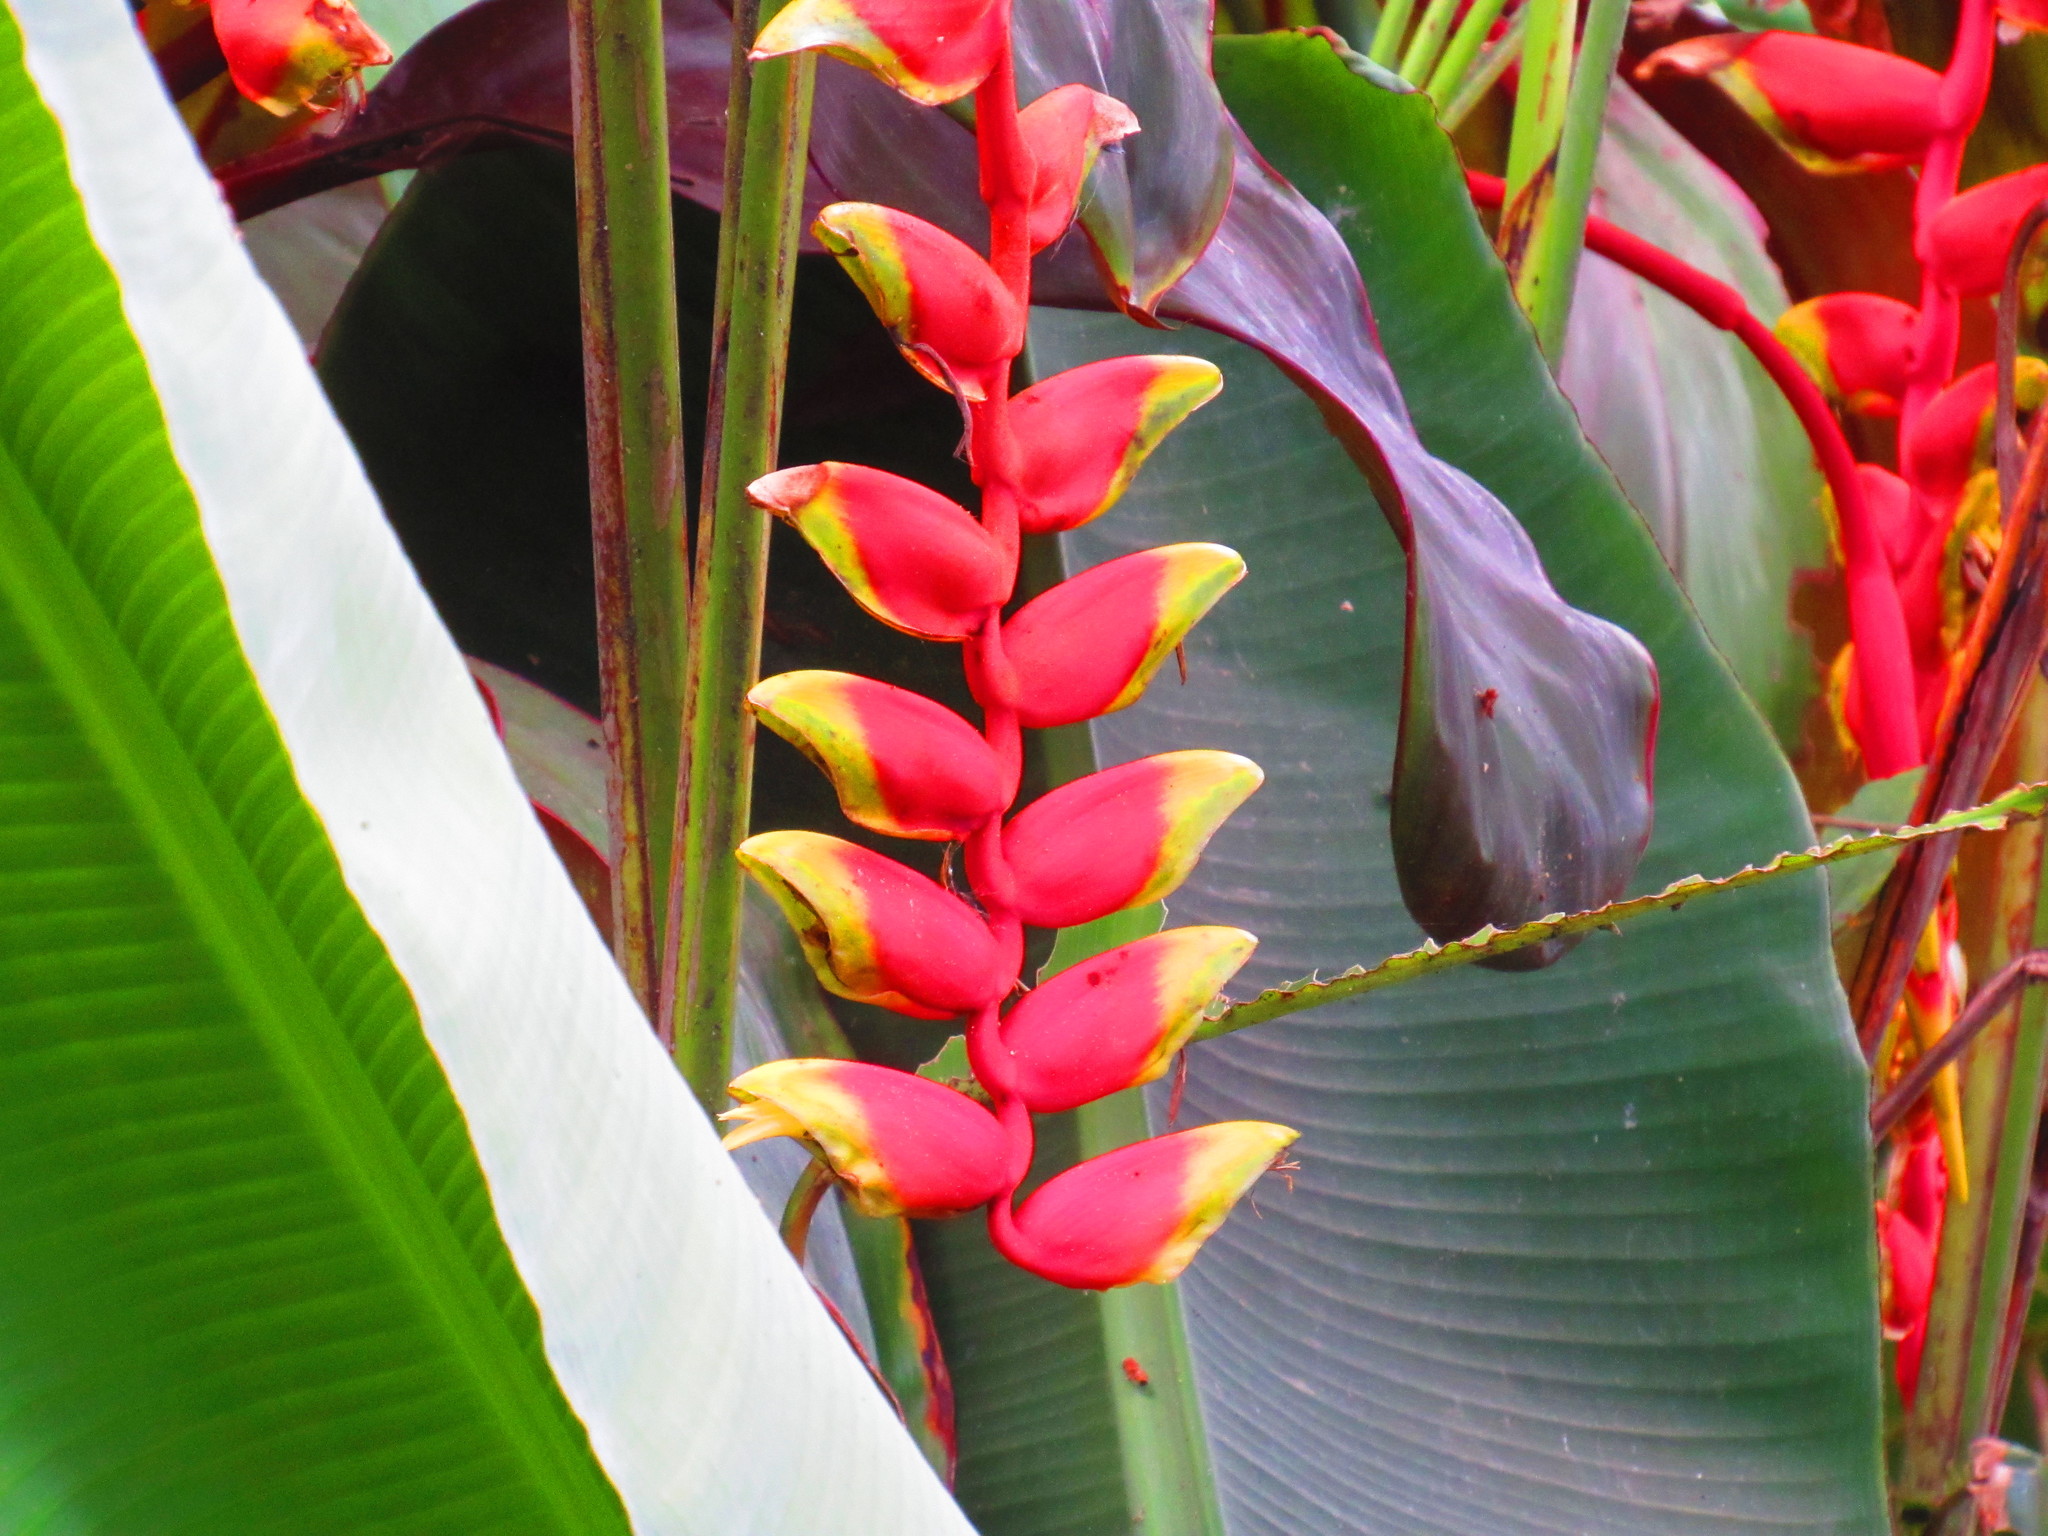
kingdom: Plantae
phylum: Tracheophyta
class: Liliopsida
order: Zingiberales
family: Heliconiaceae
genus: Heliconia
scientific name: Heliconia rostrata
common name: False bird of paradise
